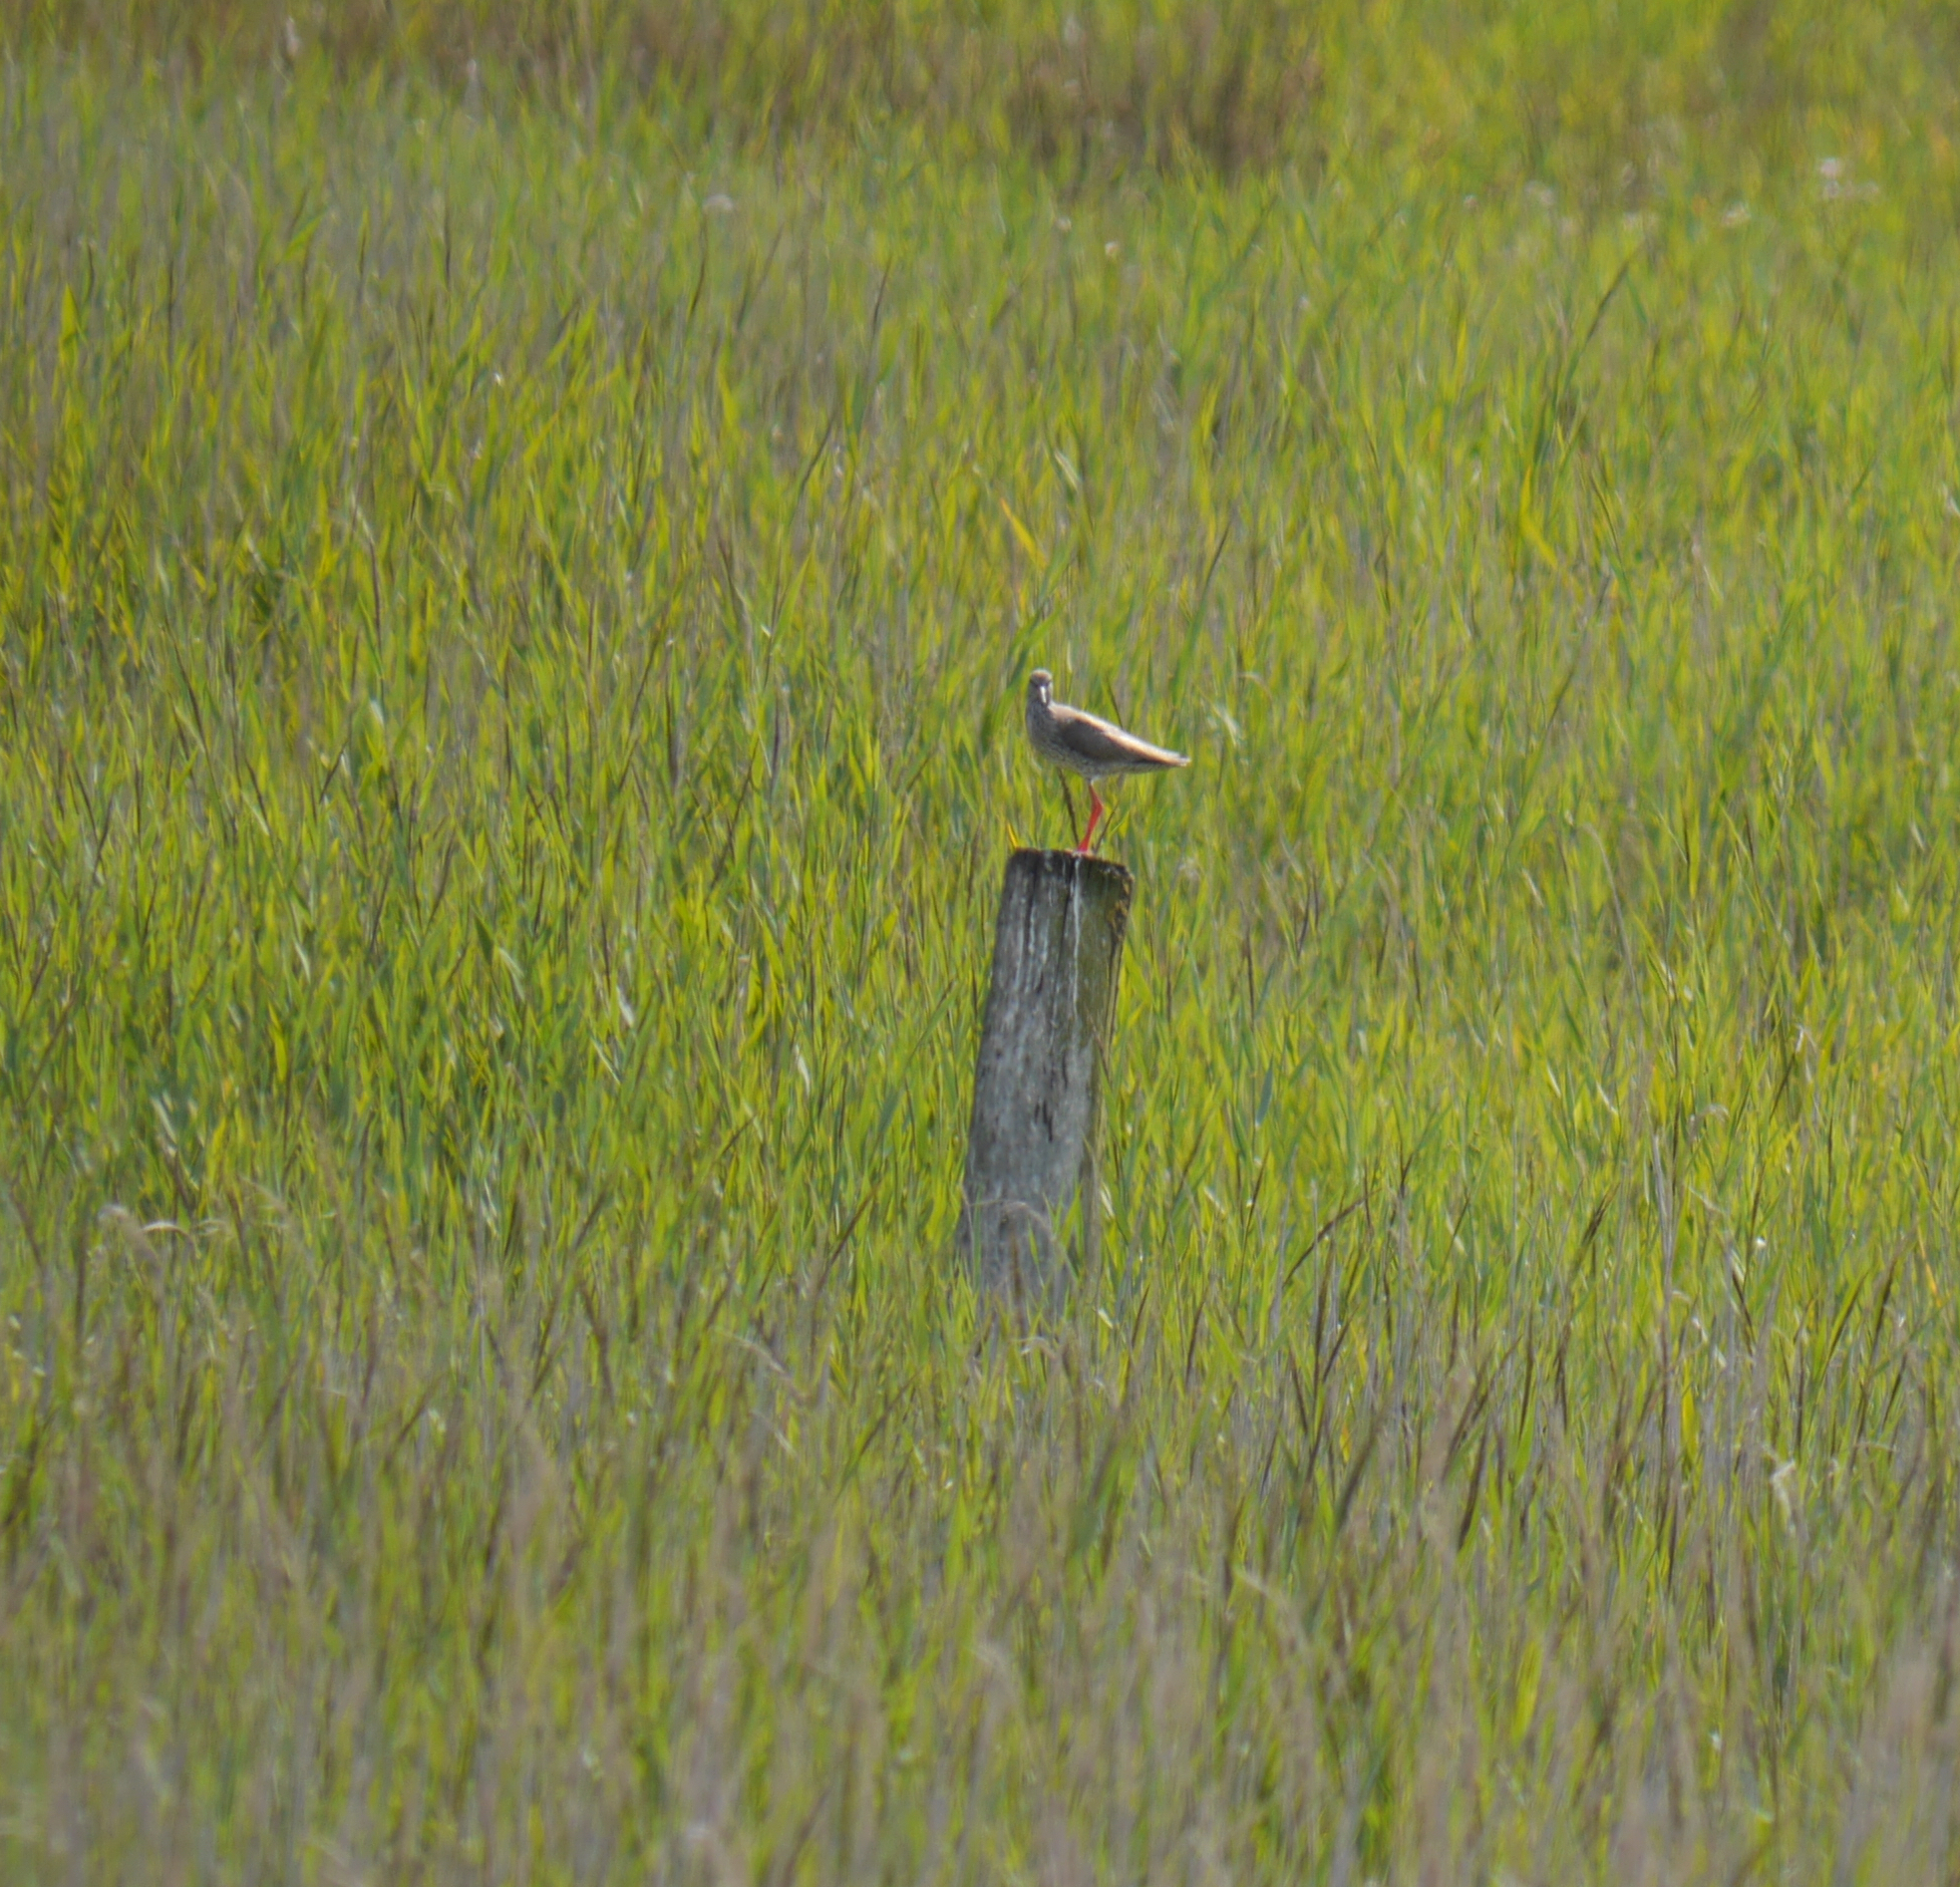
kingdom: Animalia
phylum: Chordata
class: Aves
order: Charadriiformes
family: Scolopacidae
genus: Tringa
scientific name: Tringa totanus
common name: Common redshank
